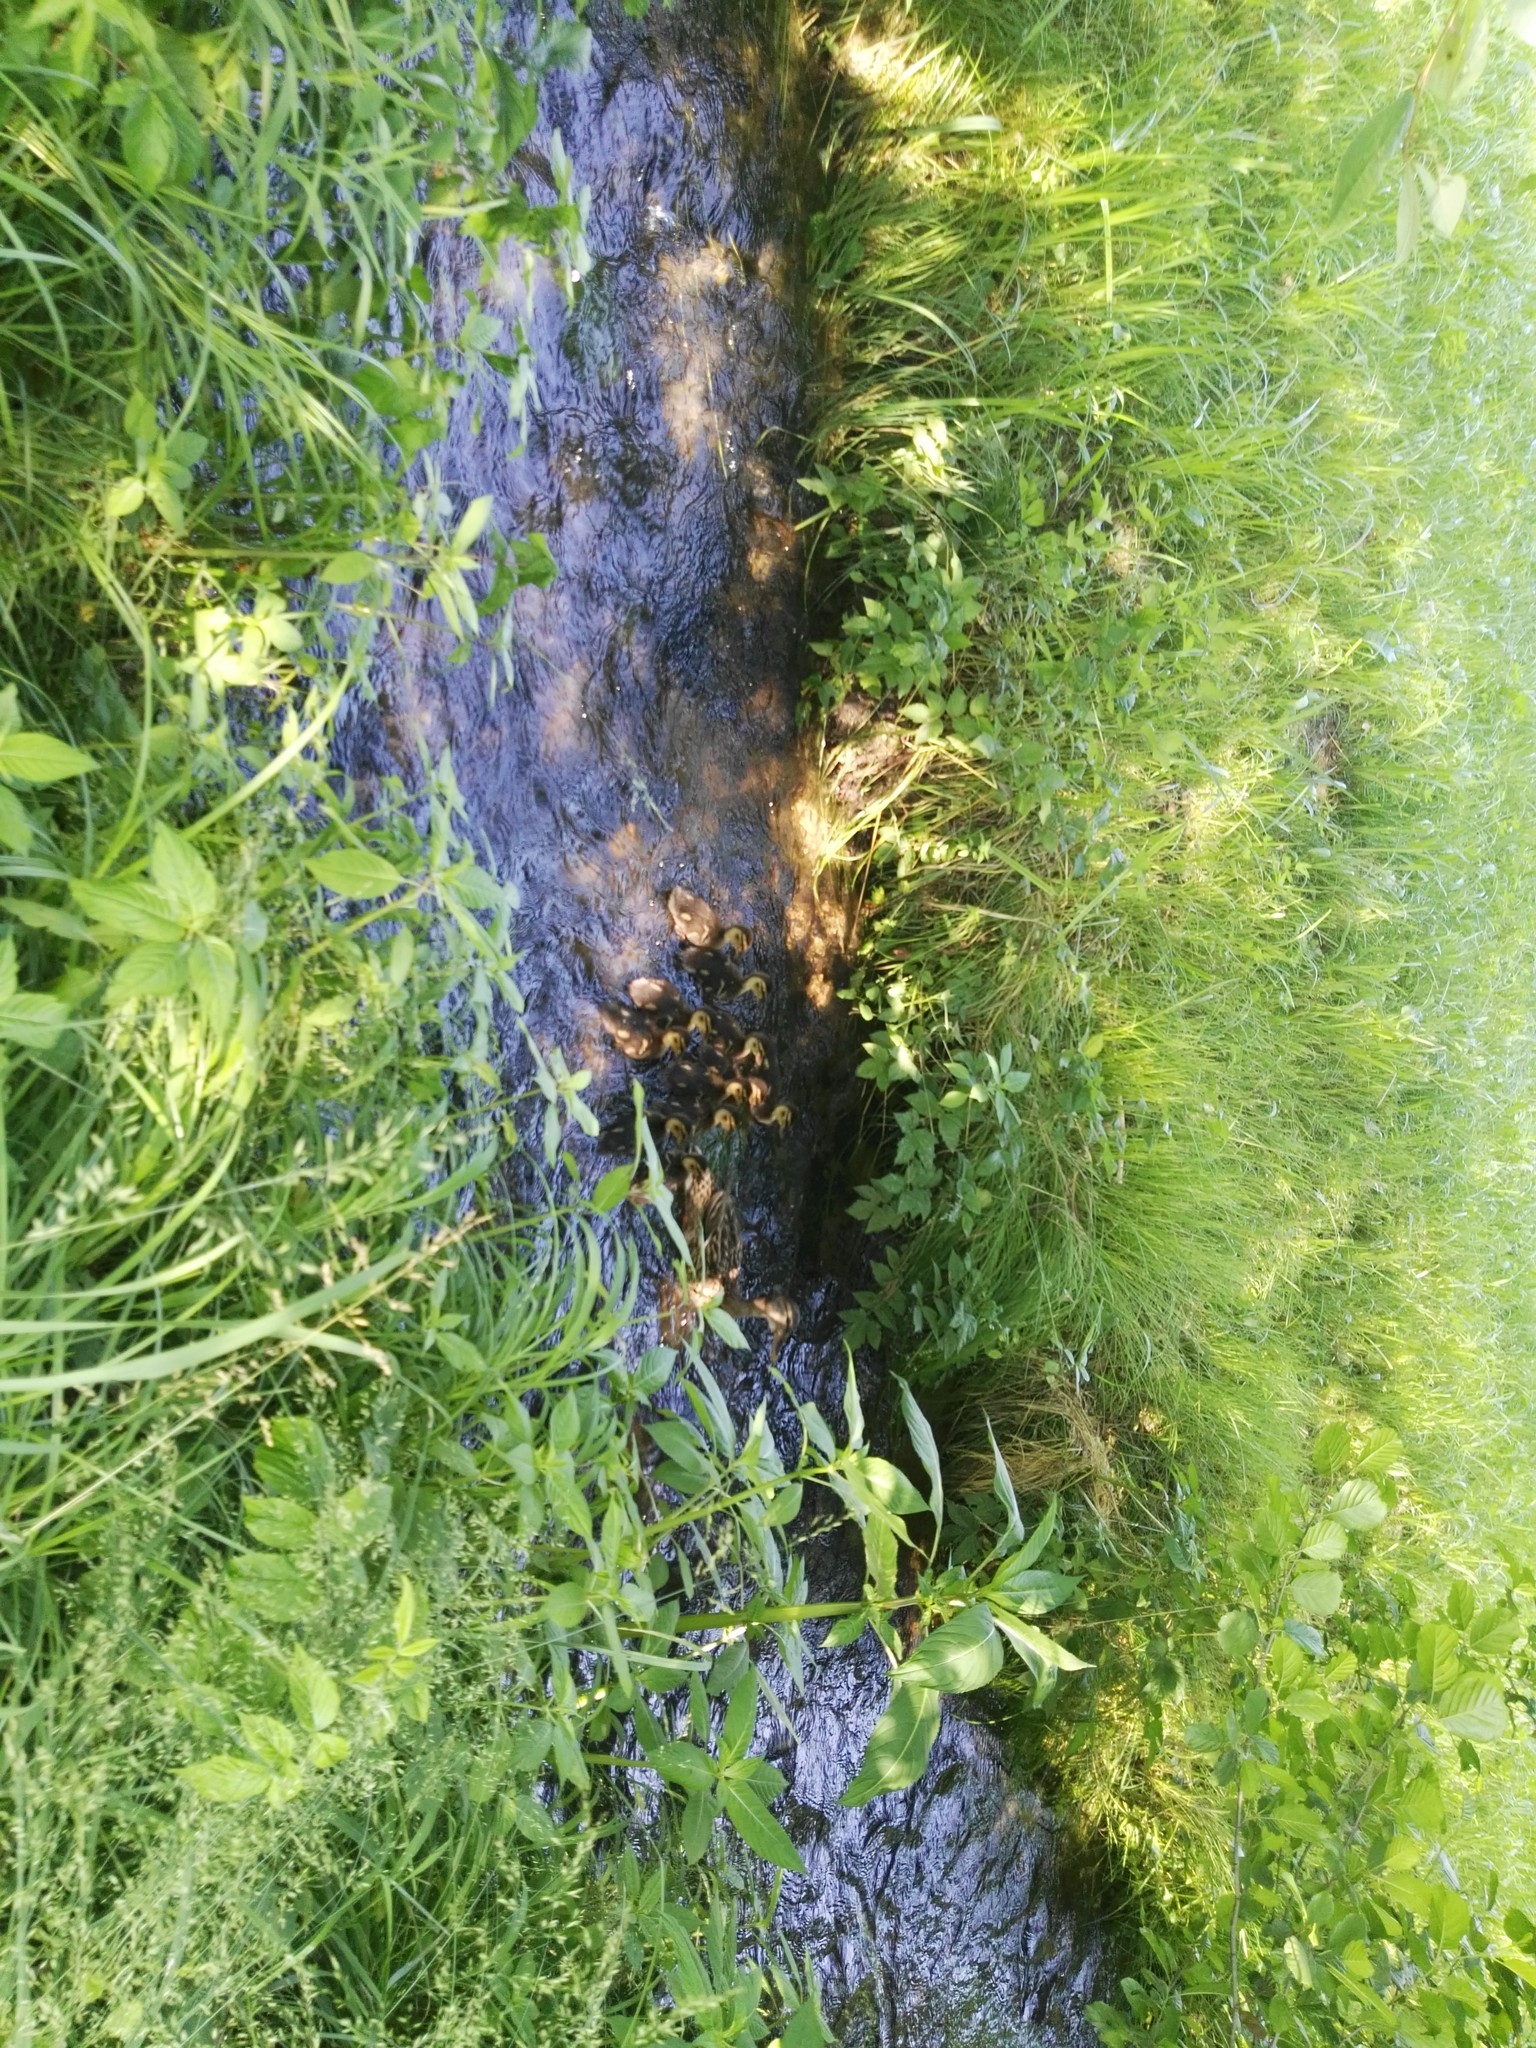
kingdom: Animalia
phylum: Chordata
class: Aves
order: Anseriformes
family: Anatidae
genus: Anas
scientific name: Anas platyrhynchos
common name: Mallard
